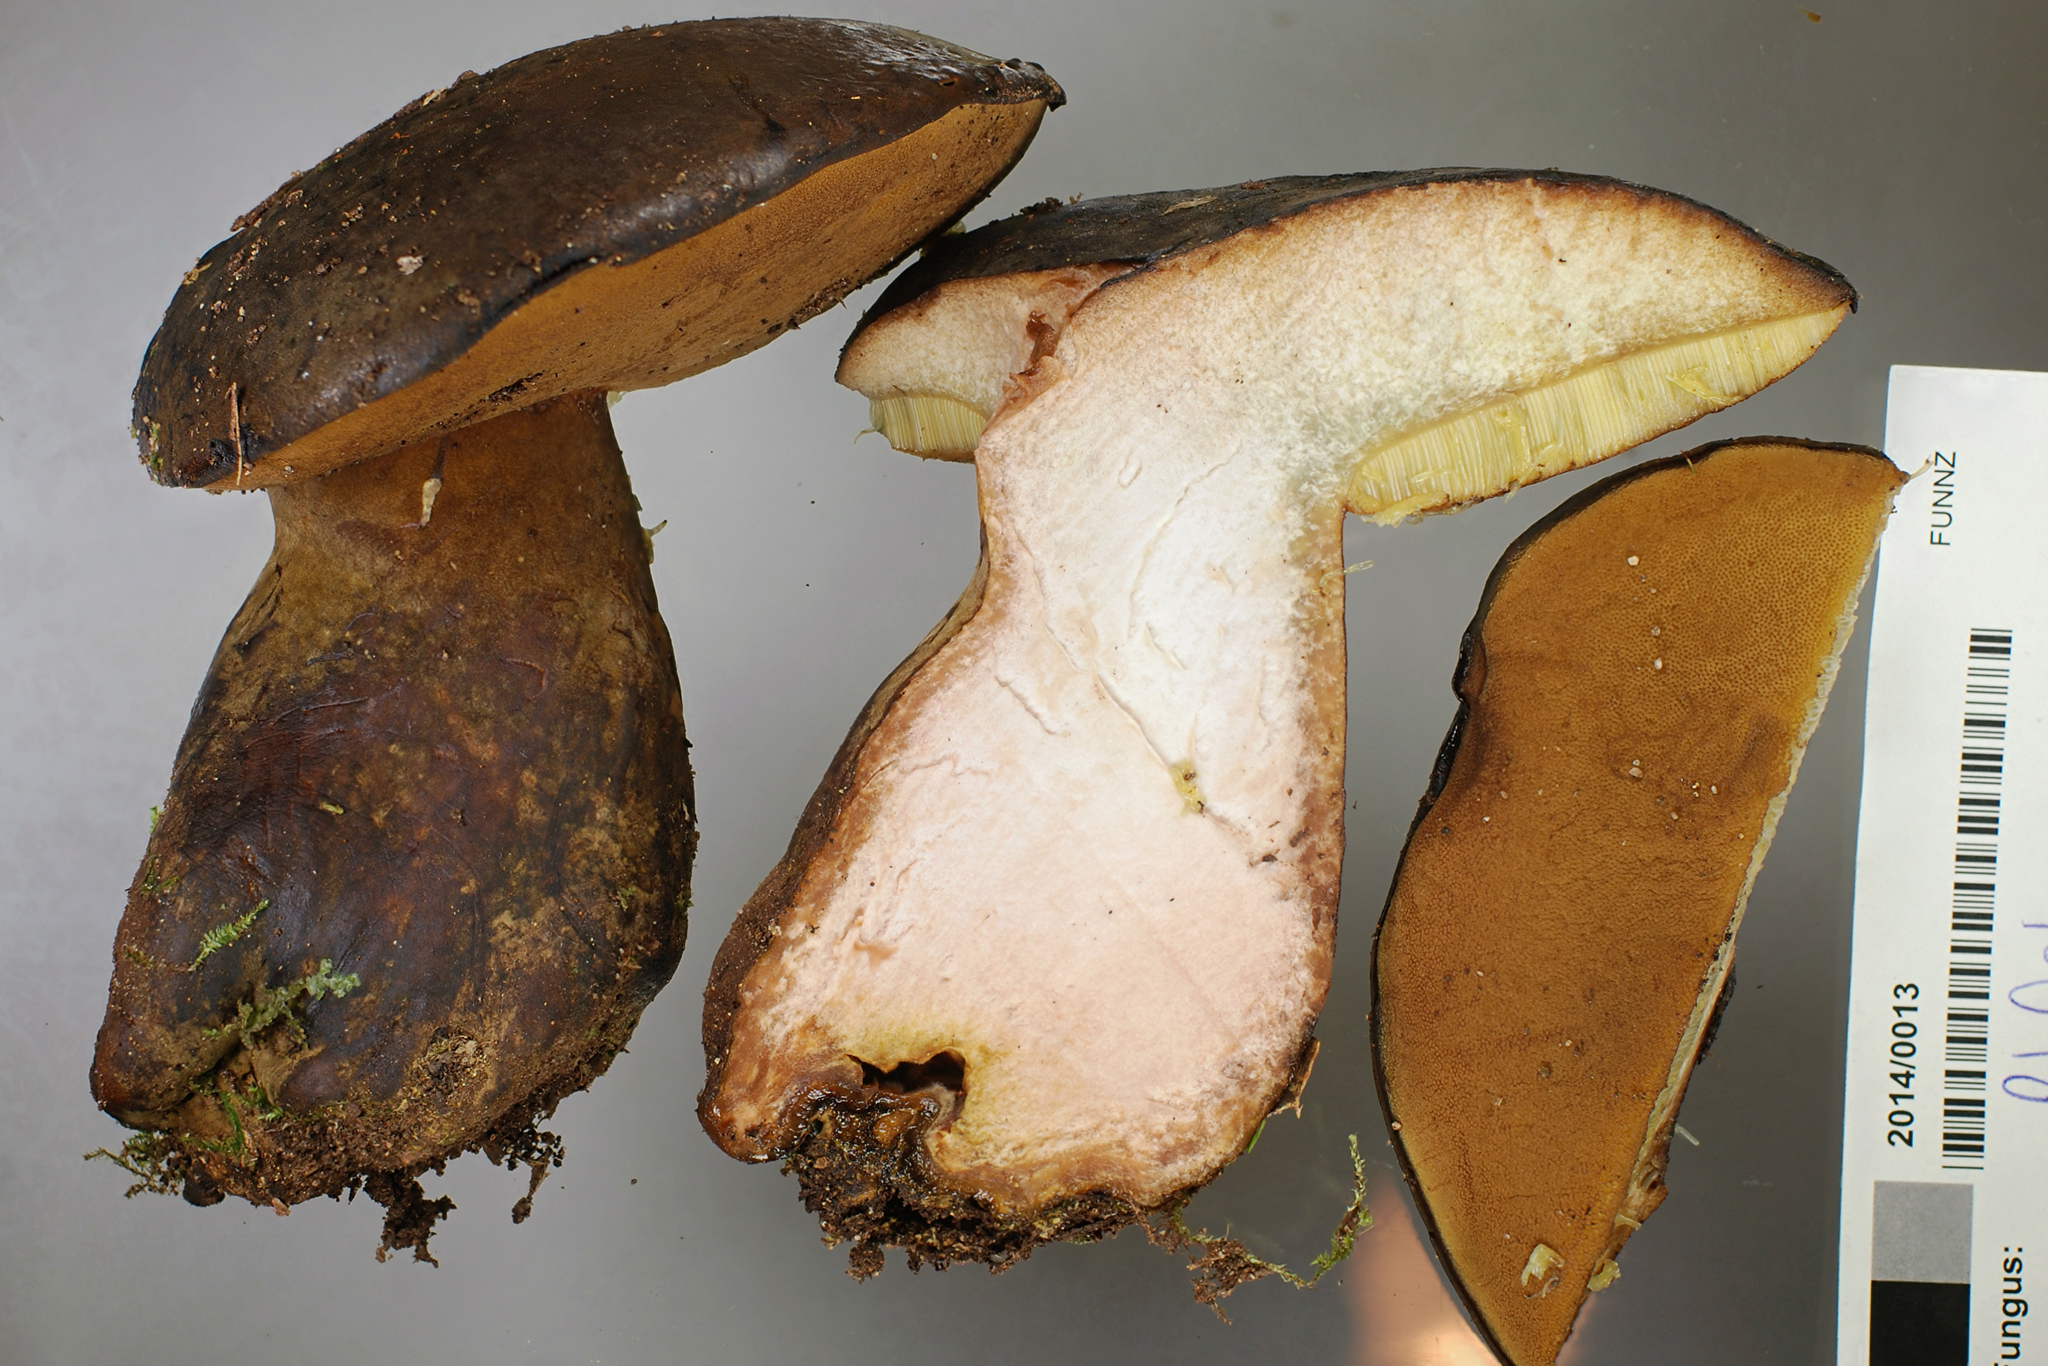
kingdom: Fungi
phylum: Basidiomycota
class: Agaricomycetes
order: Boletales
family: Boletinellaceae
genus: Phlebopus
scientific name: Phlebopus
